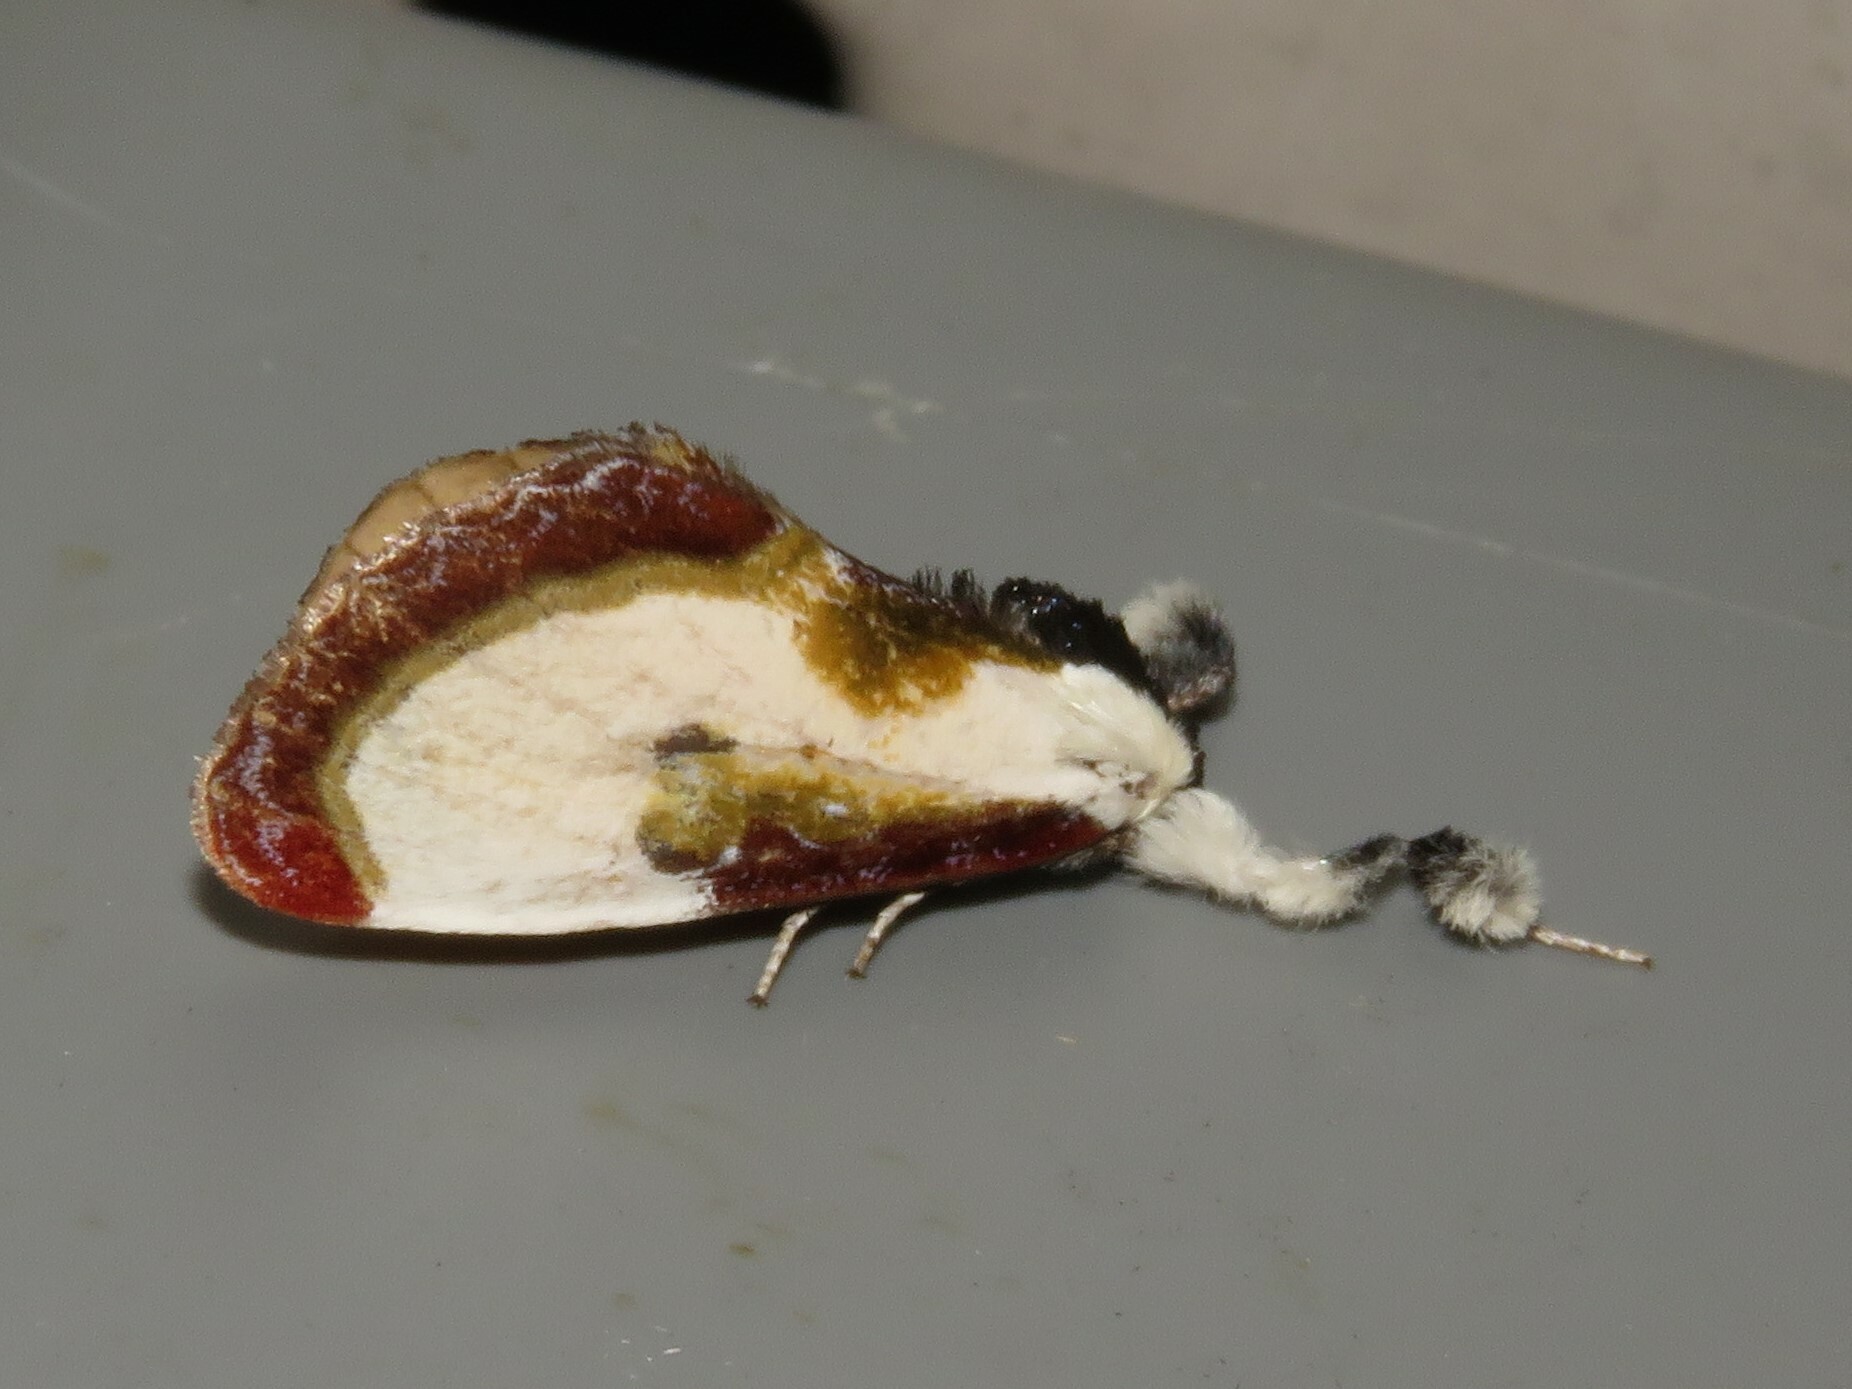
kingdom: Animalia
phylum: Arthropoda
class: Insecta
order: Lepidoptera
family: Noctuidae
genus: Eudryas
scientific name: Eudryas grata
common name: Beautiful wood-nymph
